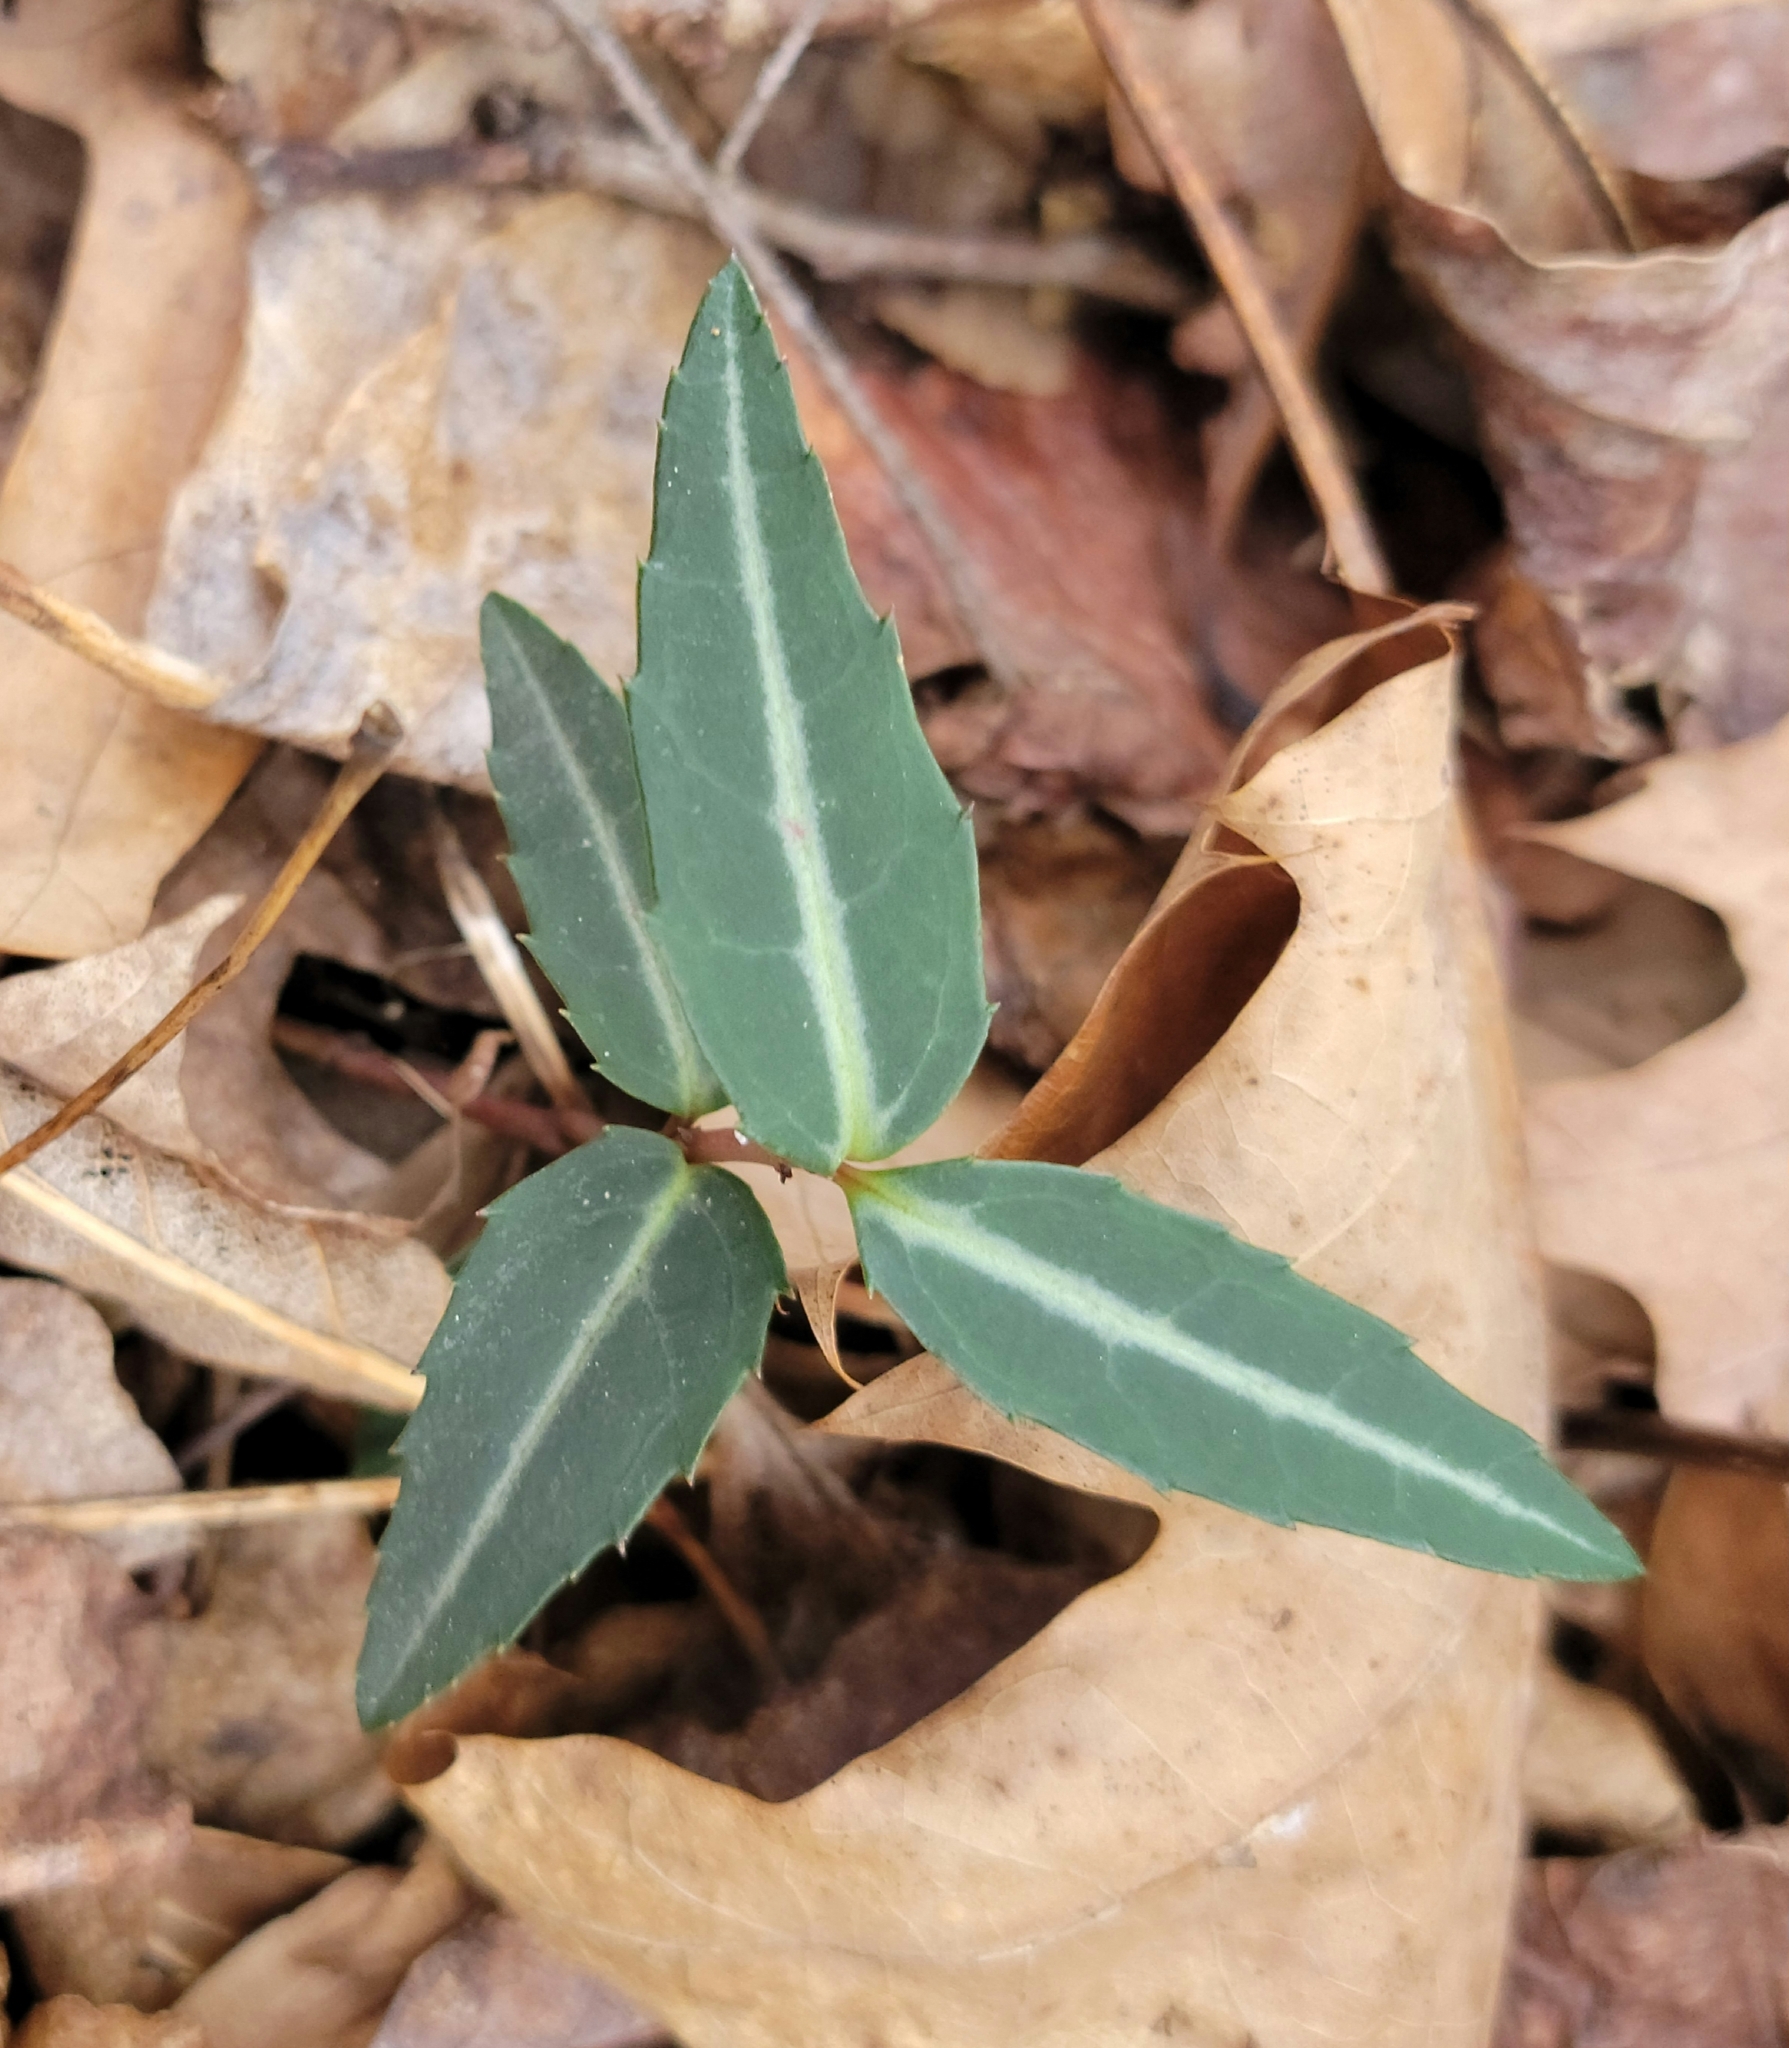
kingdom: Plantae
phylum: Tracheophyta
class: Magnoliopsida
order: Ericales
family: Ericaceae
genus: Chimaphila
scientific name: Chimaphila maculata
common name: Spotted pipsissewa
